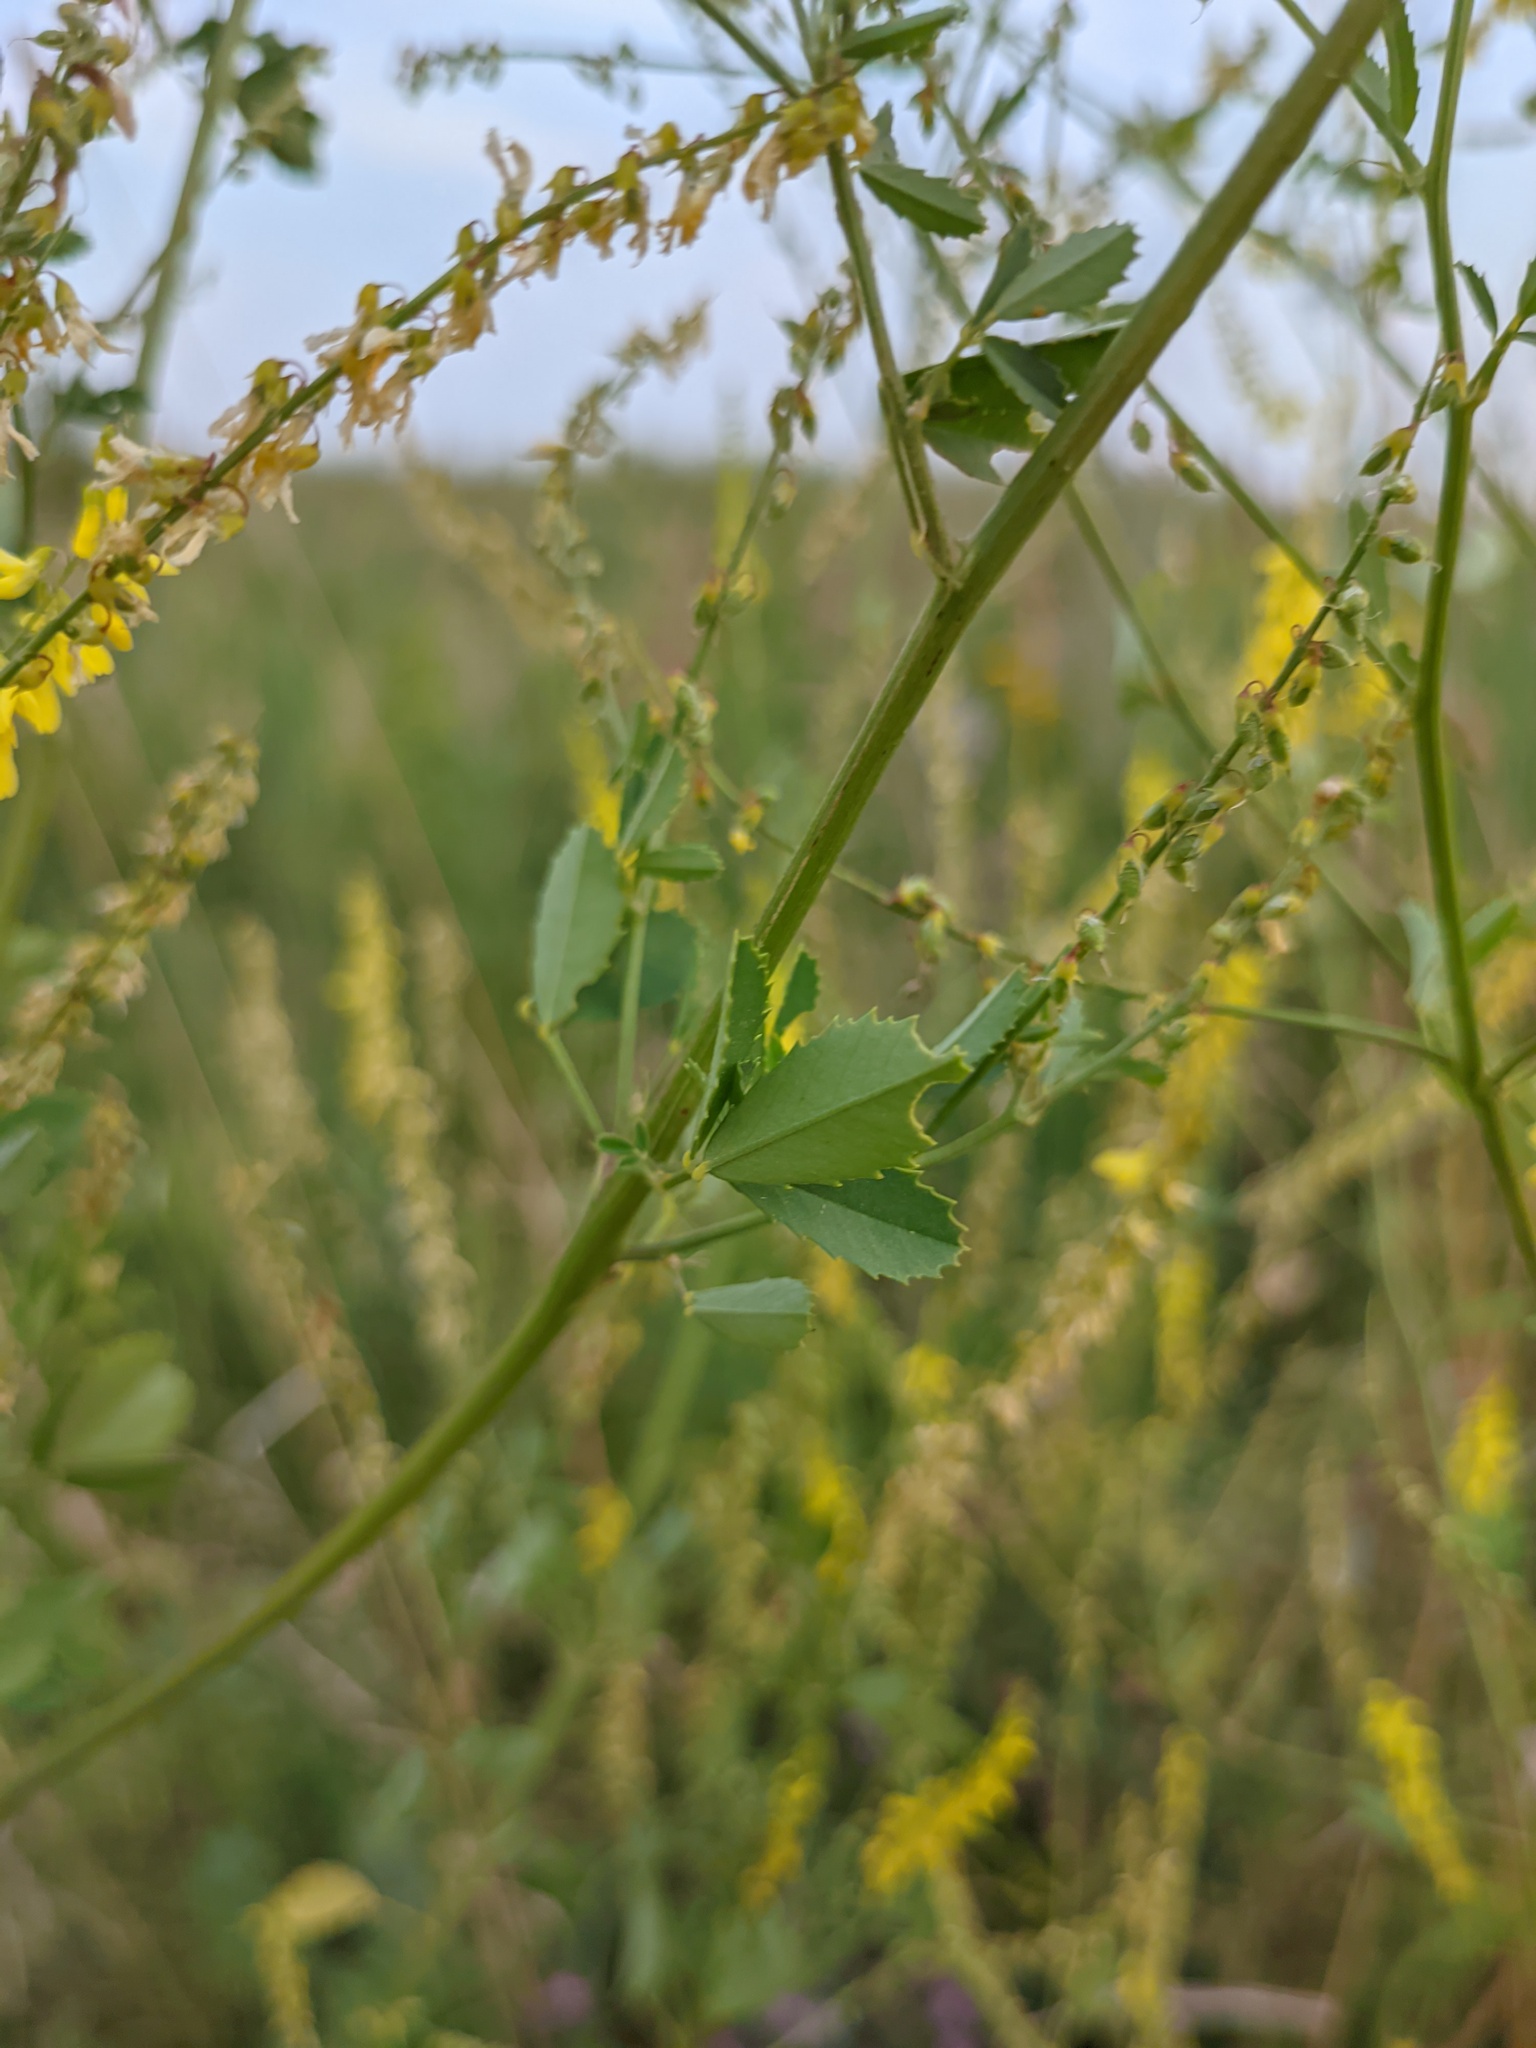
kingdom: Plantae
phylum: Tracheophyta
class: Magnoliopsida
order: Fabales
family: Fabaceae
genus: Melilotus
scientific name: Melilotus officinalis
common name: Sweetclover
